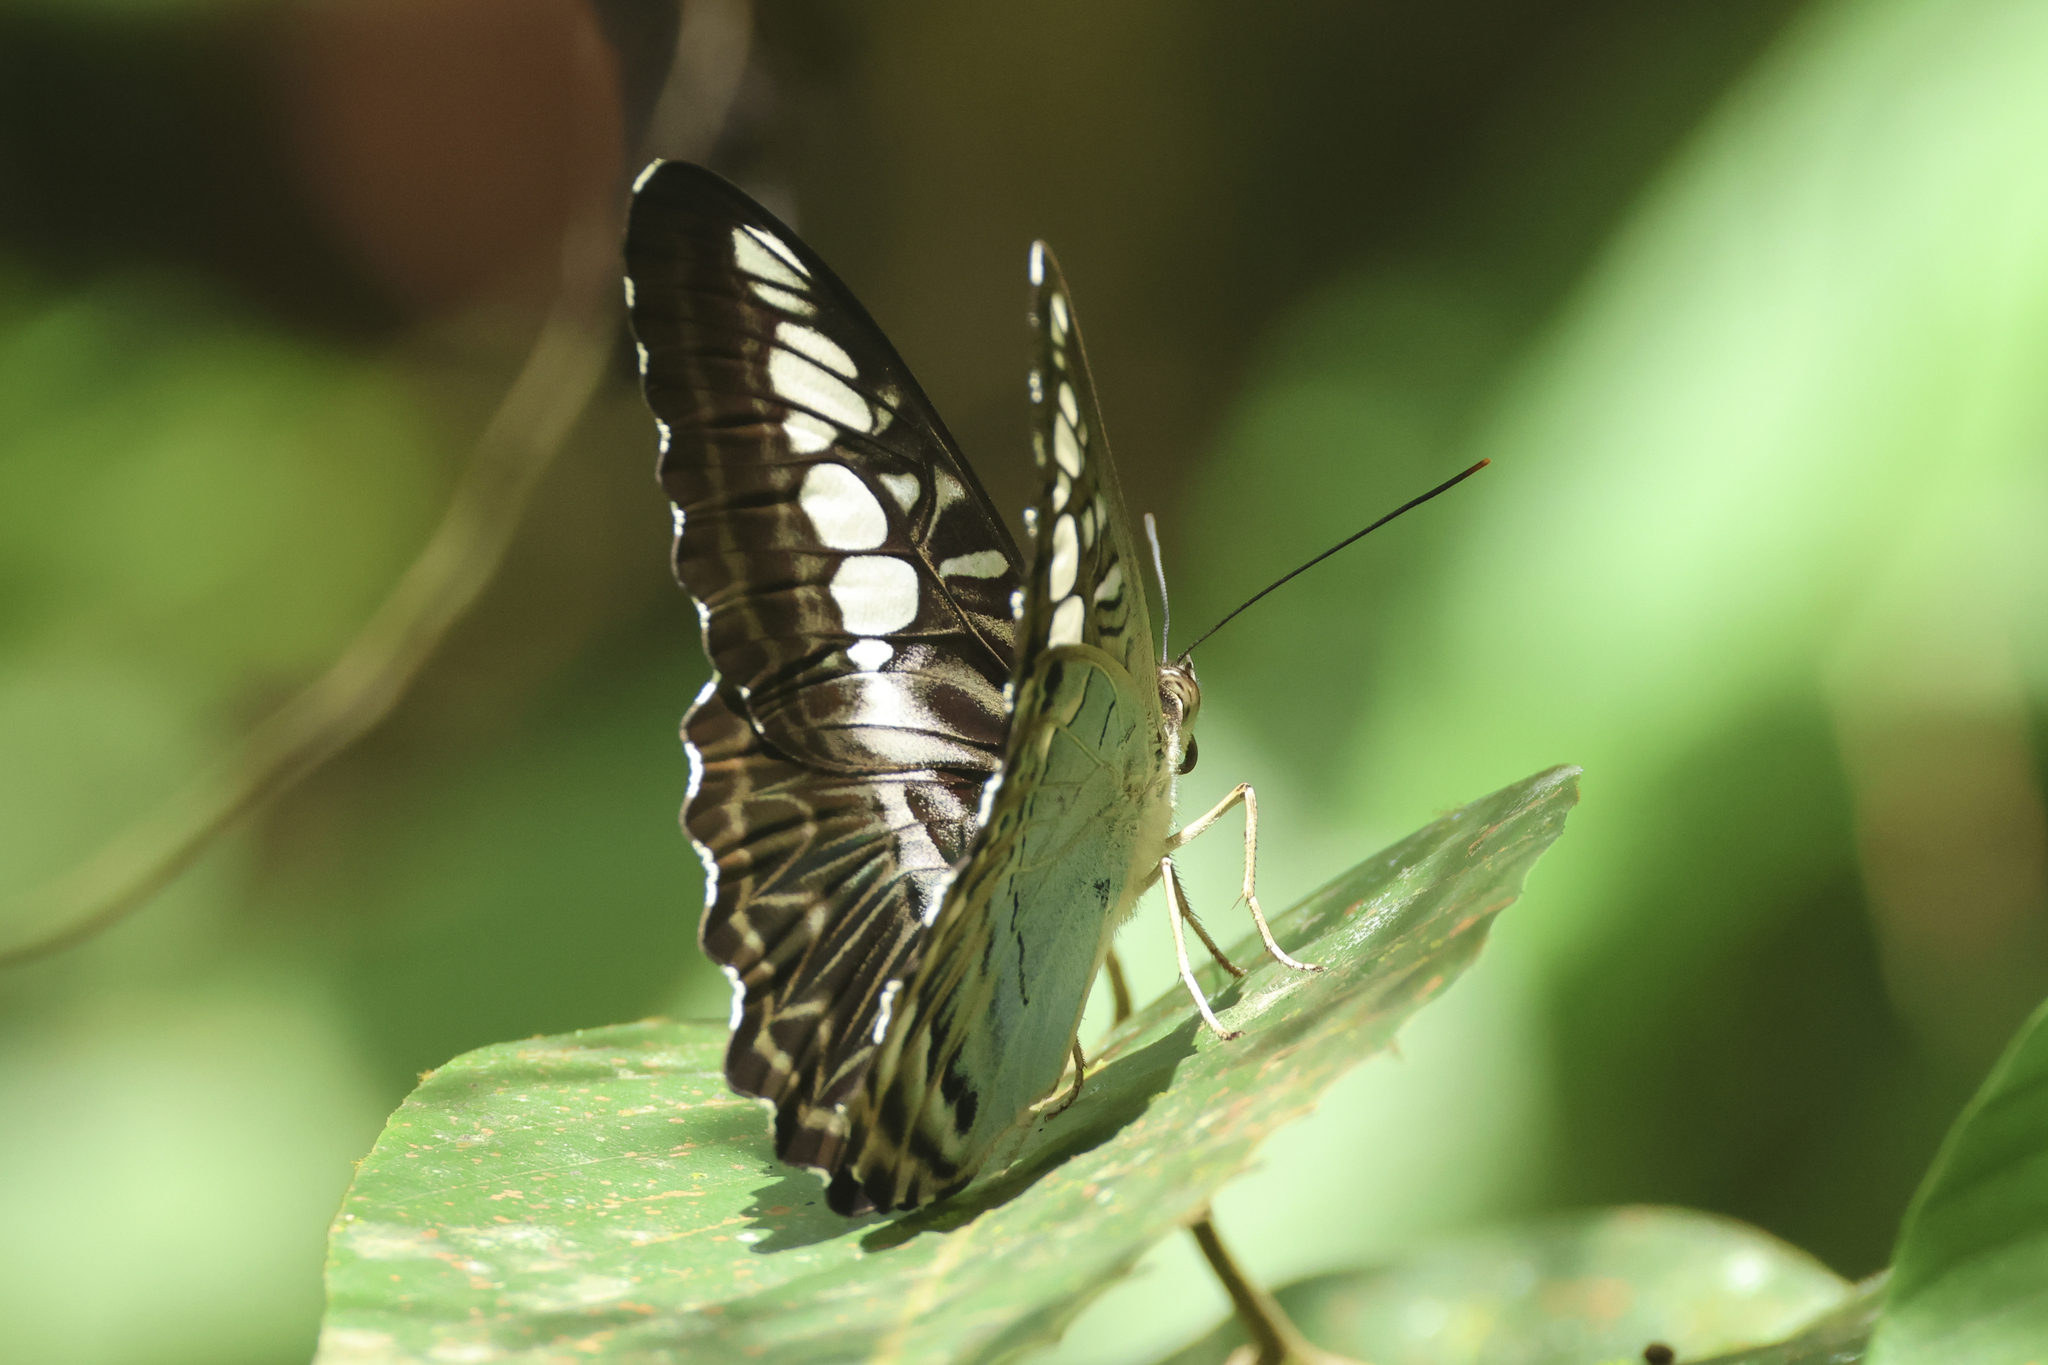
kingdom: Animalia
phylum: Arthropoda
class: Insecta
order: Lepidoptera
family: Nymphalidae
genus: Kallima
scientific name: Kallima sylvia
